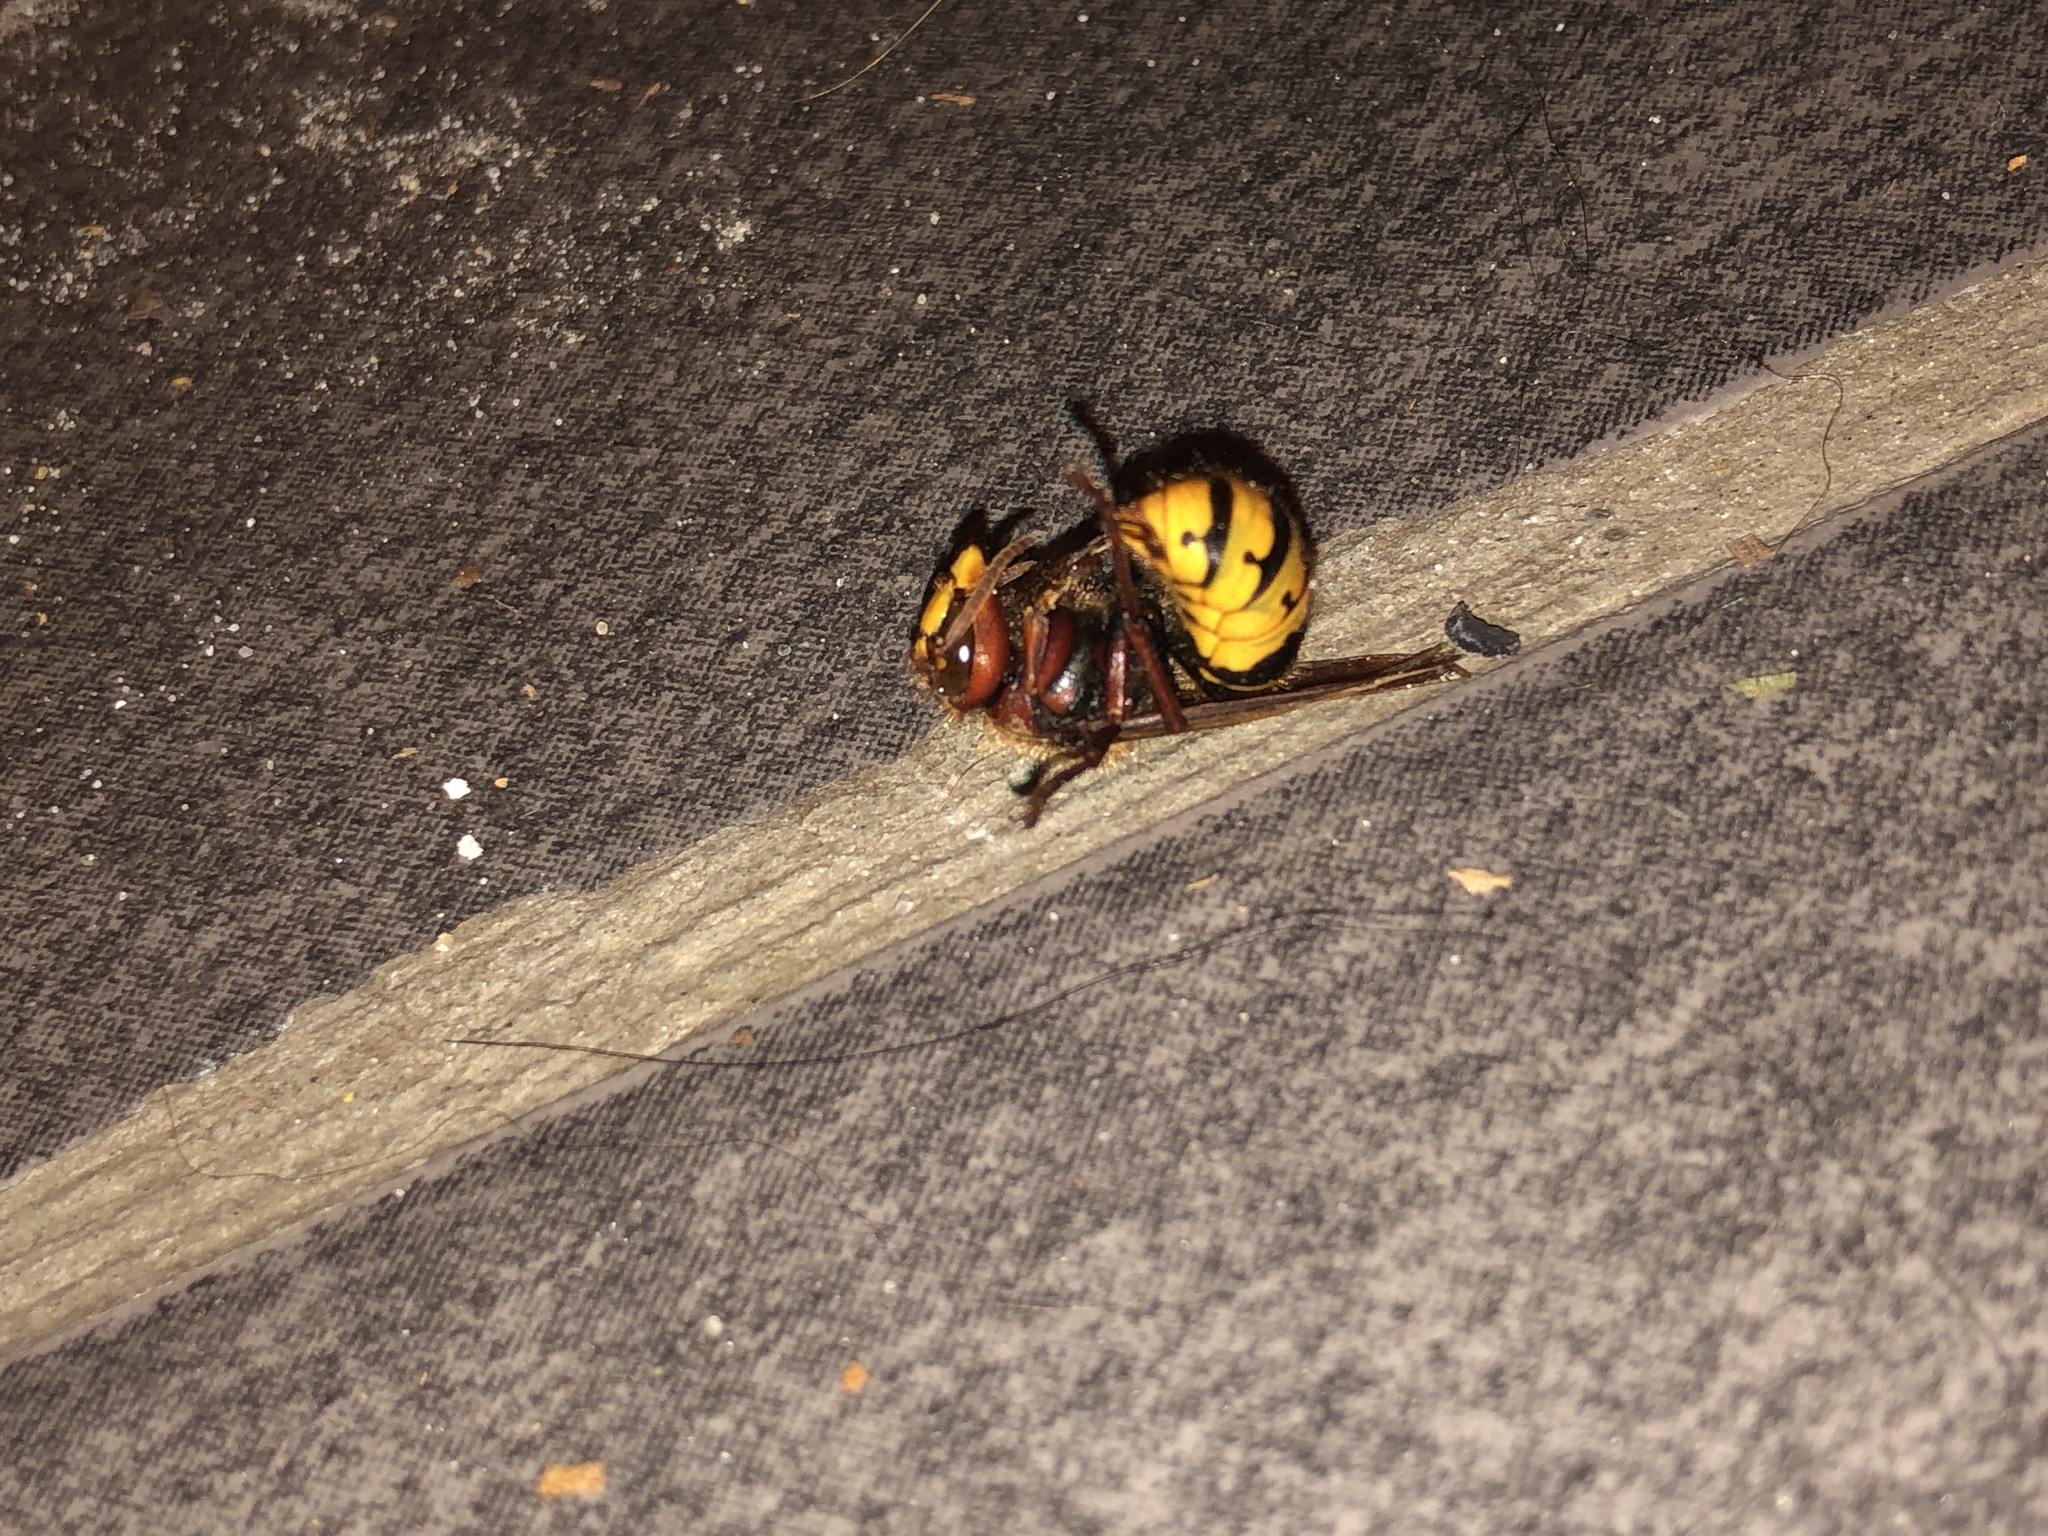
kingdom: Animalia
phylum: Arthropoda
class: Insecta
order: Hymenoptera
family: Vespidae
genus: Vespa
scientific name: Vespa crabro
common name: Hornet
